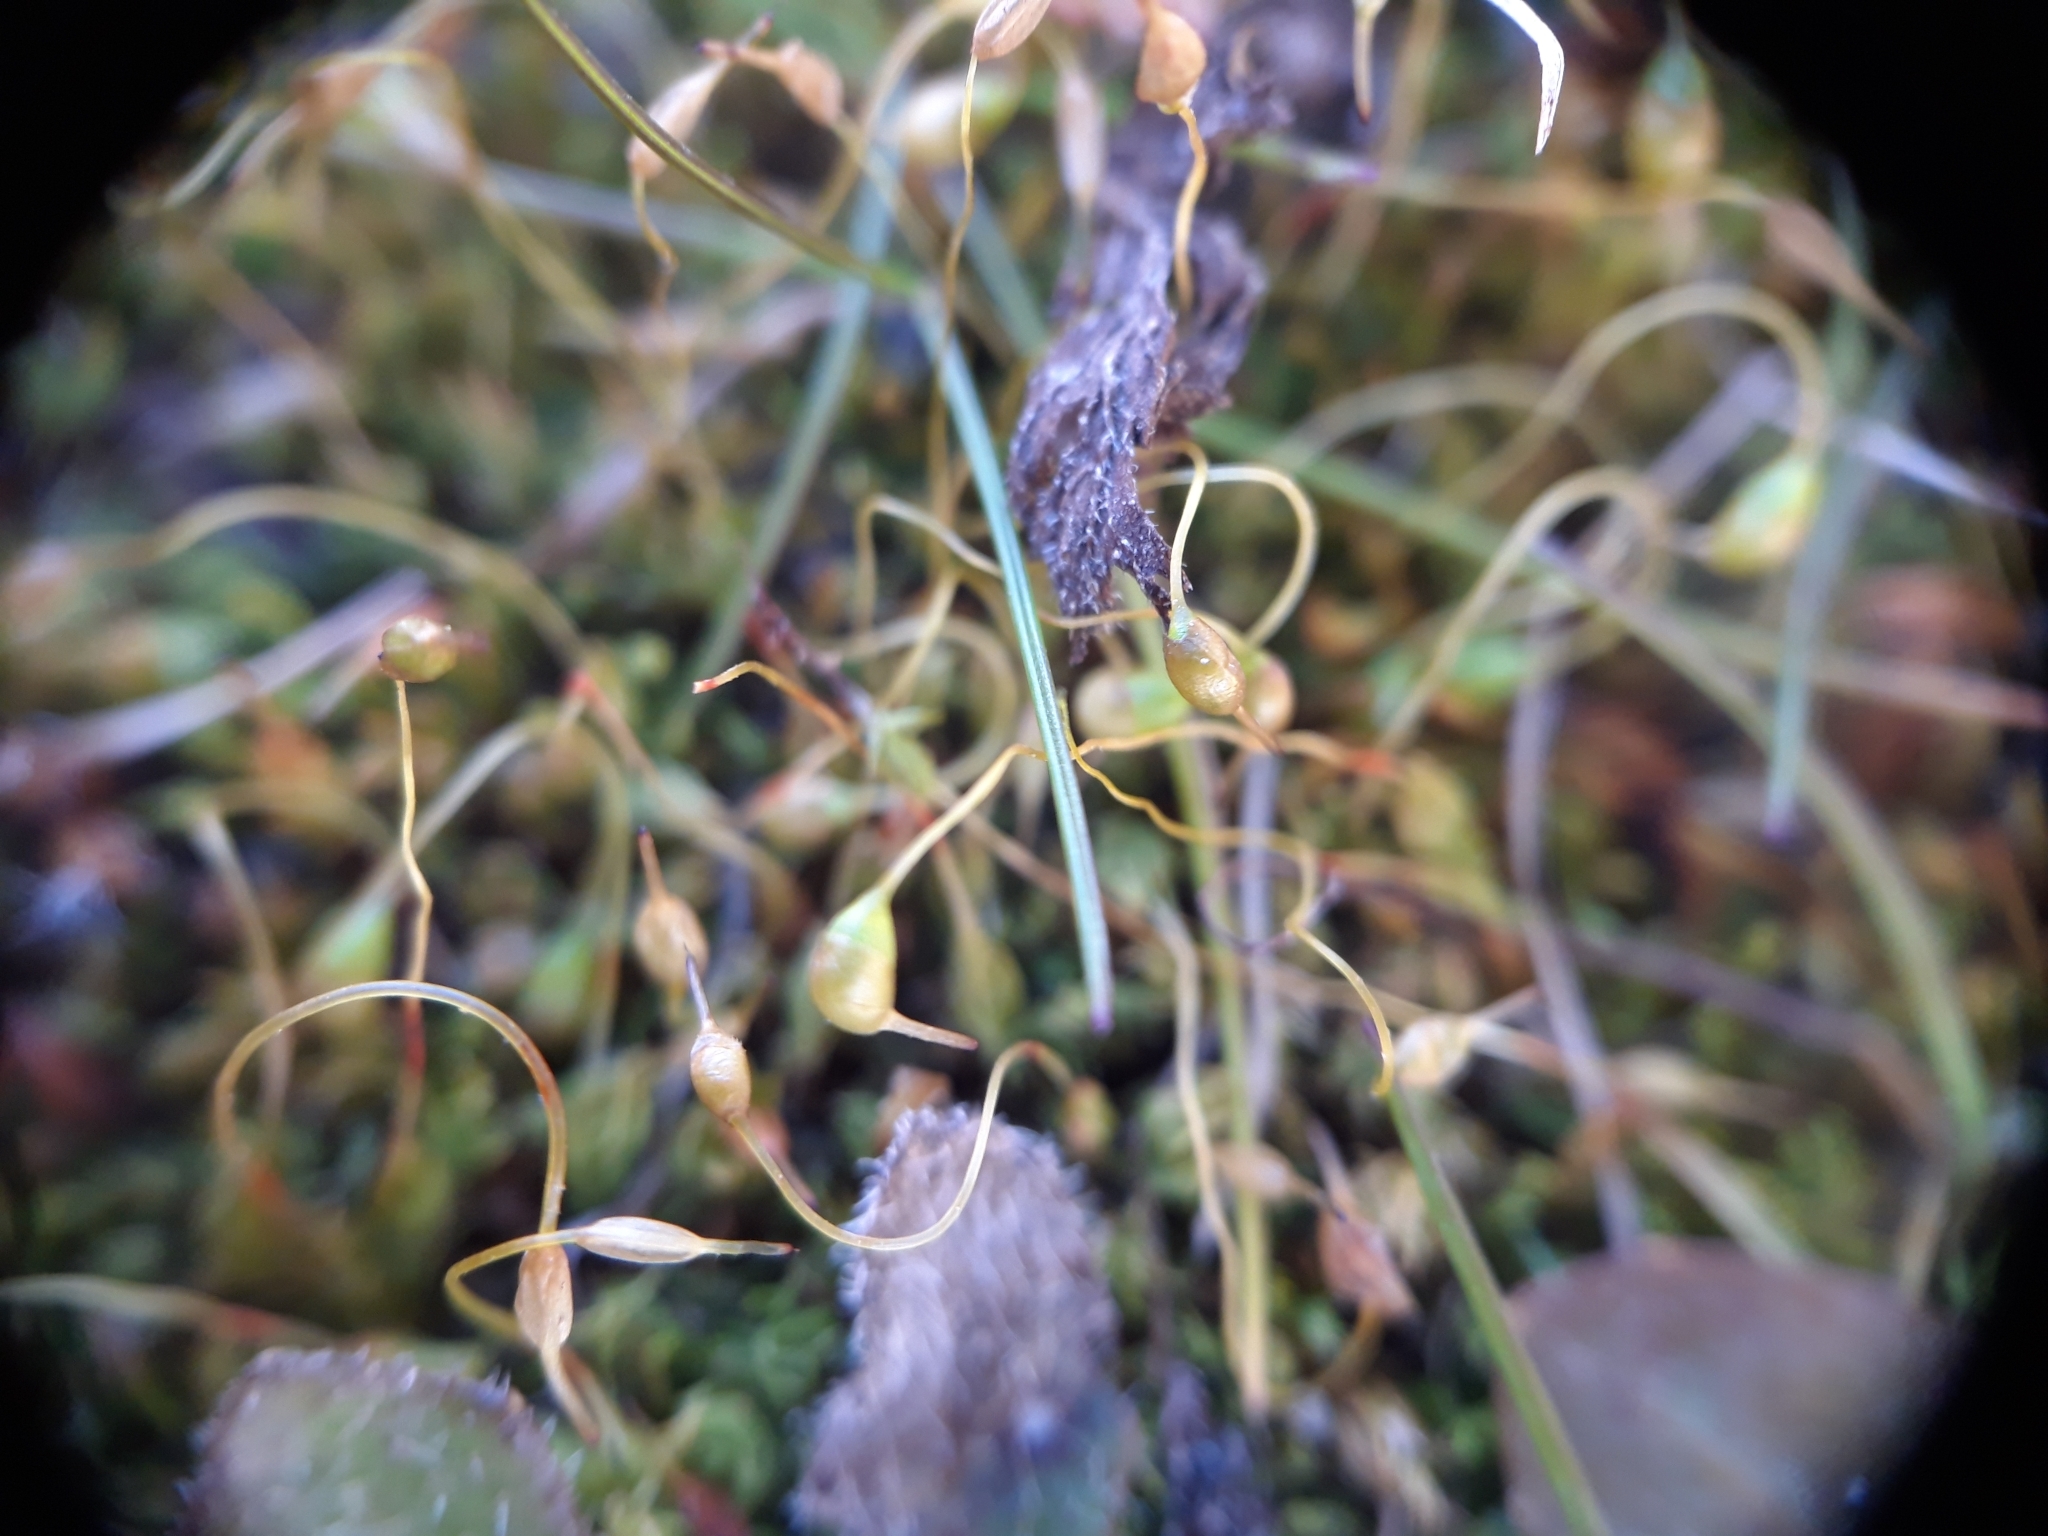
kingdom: Plantae
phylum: Bryophyta
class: Bryopsida
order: Funariales
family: Funariaceae
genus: Funaria
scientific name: Funaria hygrometrica
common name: Common cord moss
